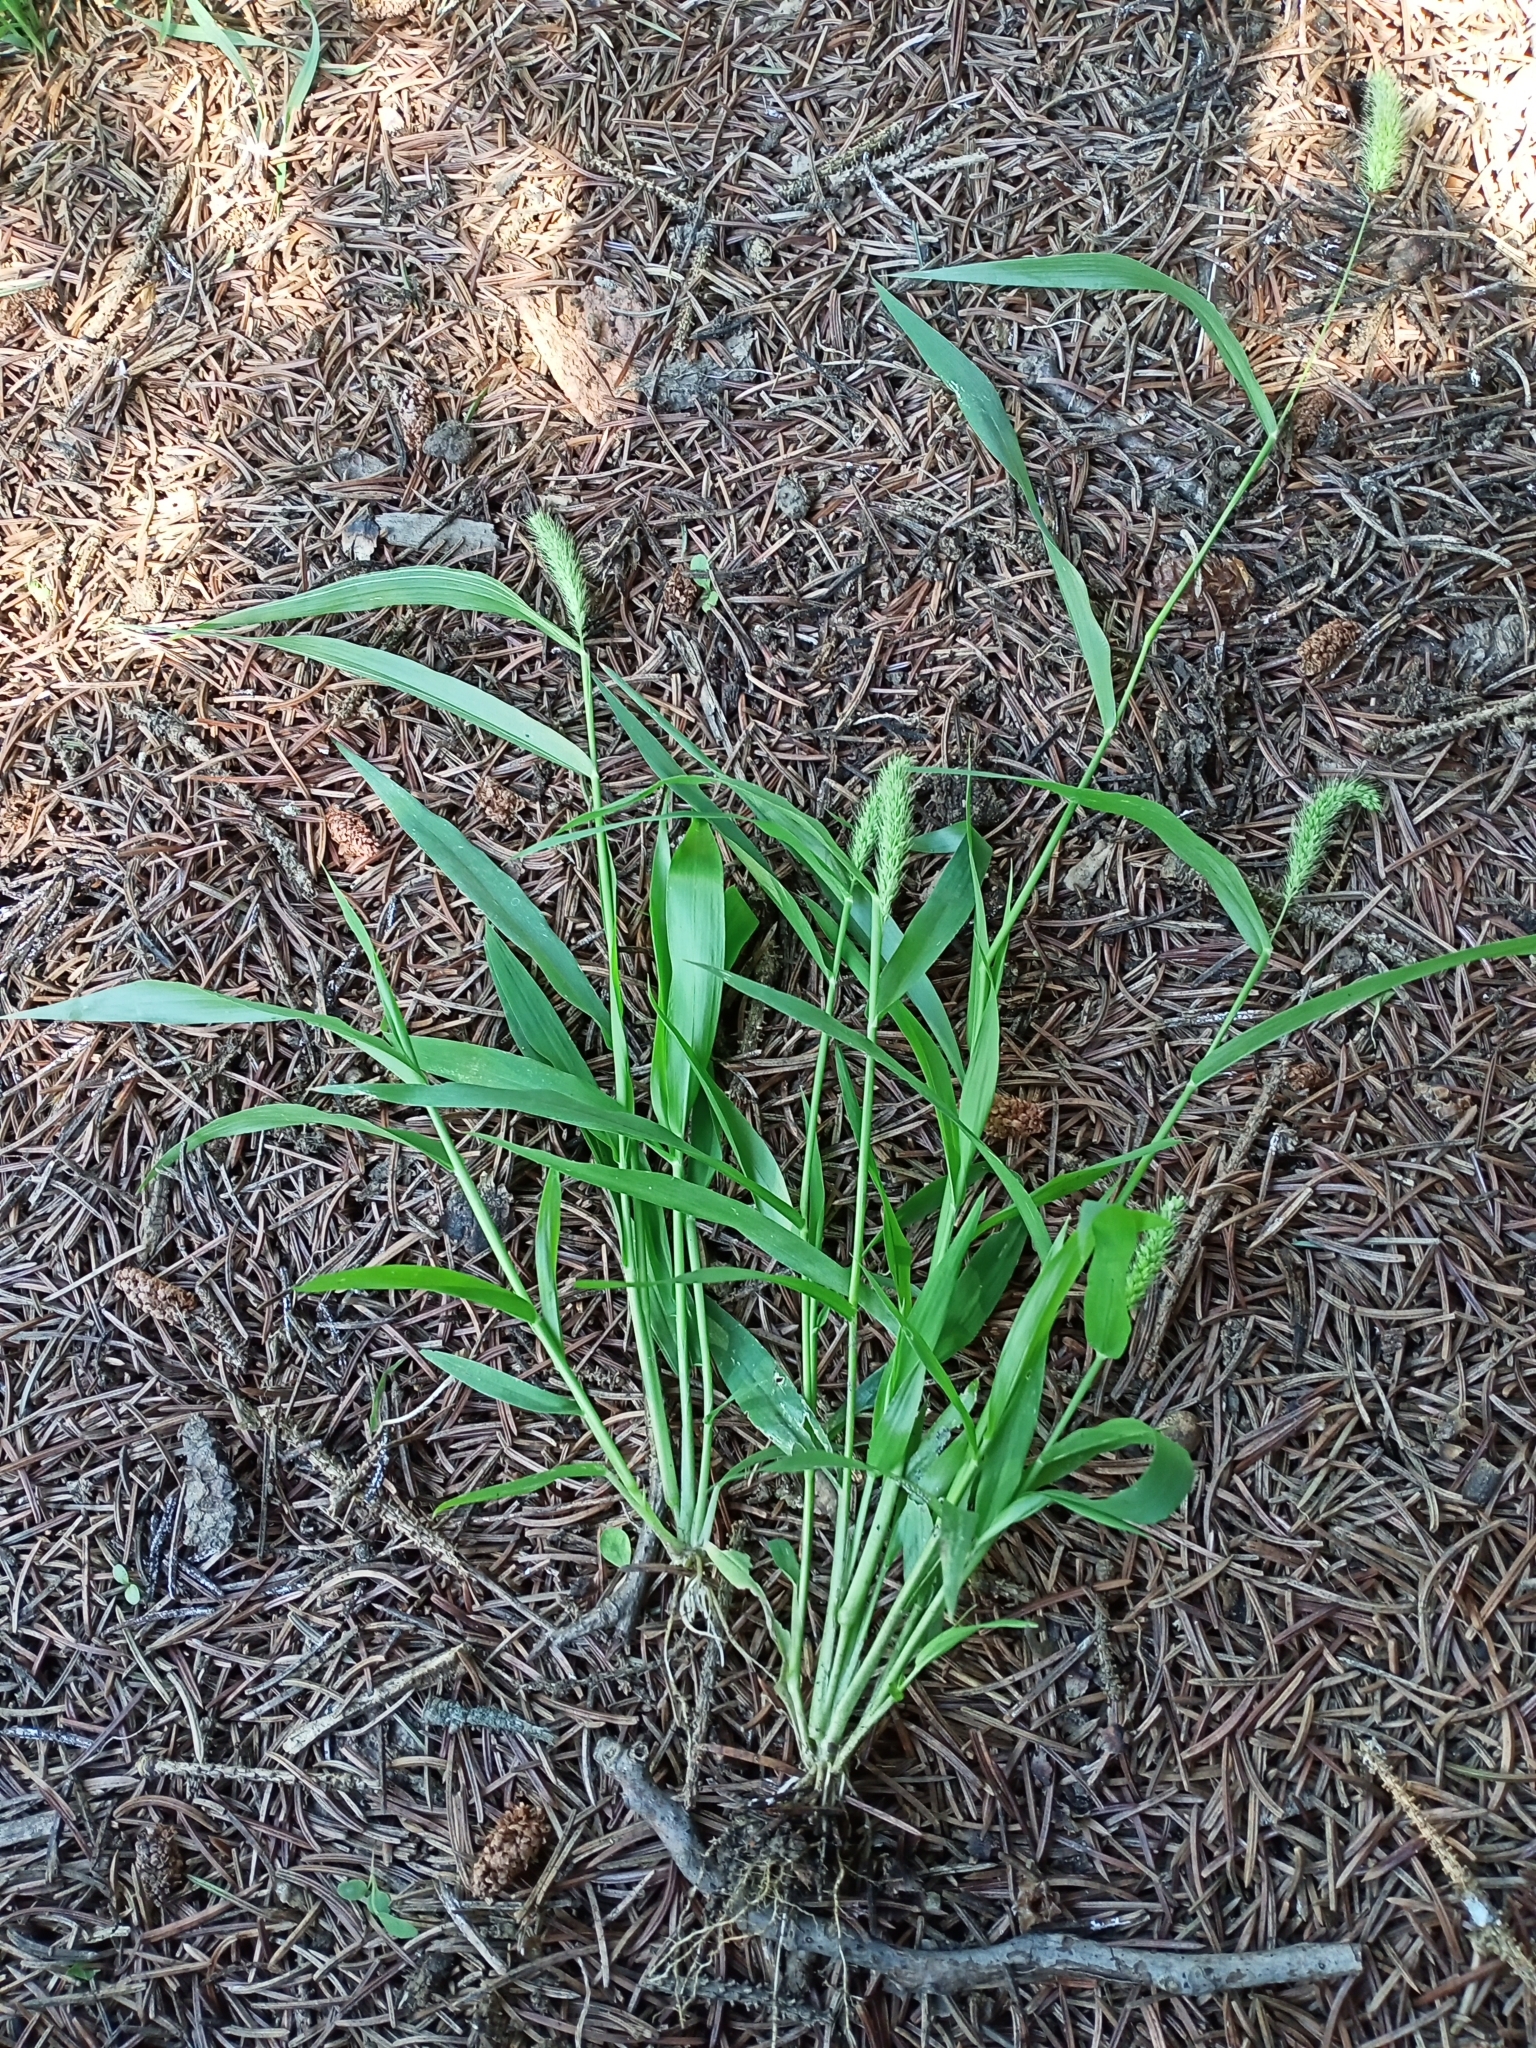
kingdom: Plantae
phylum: Tracheophyta
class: Liliopsida
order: Poales
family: Poaceae
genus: Setaria
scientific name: Setaria viridis
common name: Green bristlegrass
